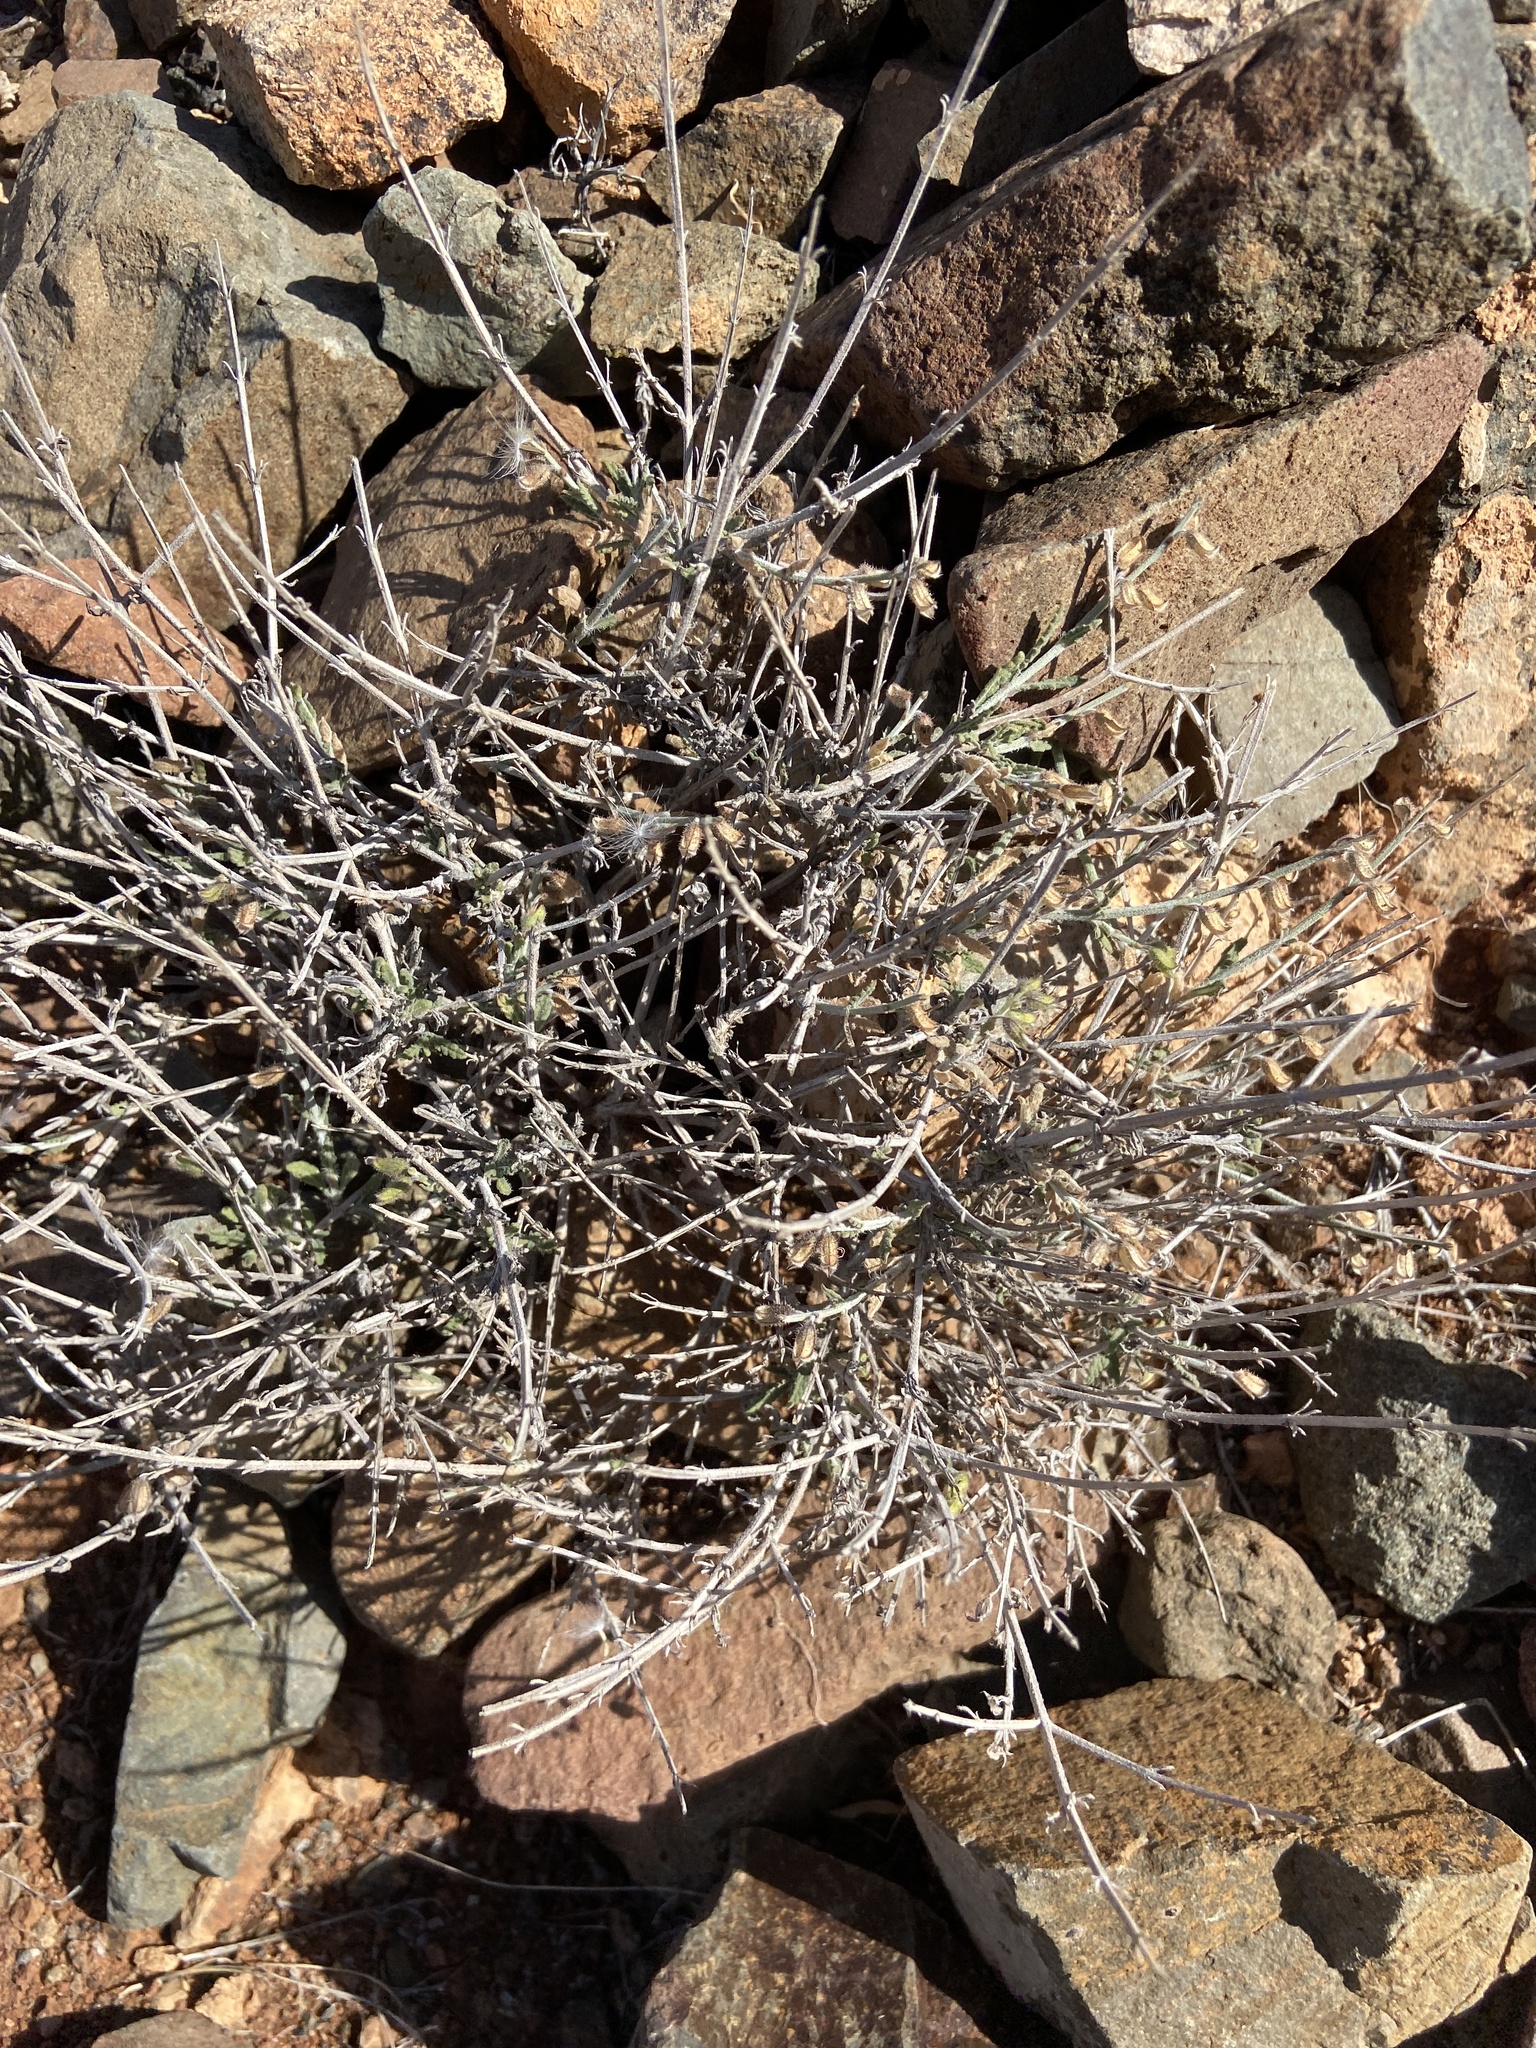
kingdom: Plantae
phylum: Tracheophyta
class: Magnoliopsida
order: Lamiales
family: Lamiaceae
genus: Salvia
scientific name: Salvia aegyptiaca
